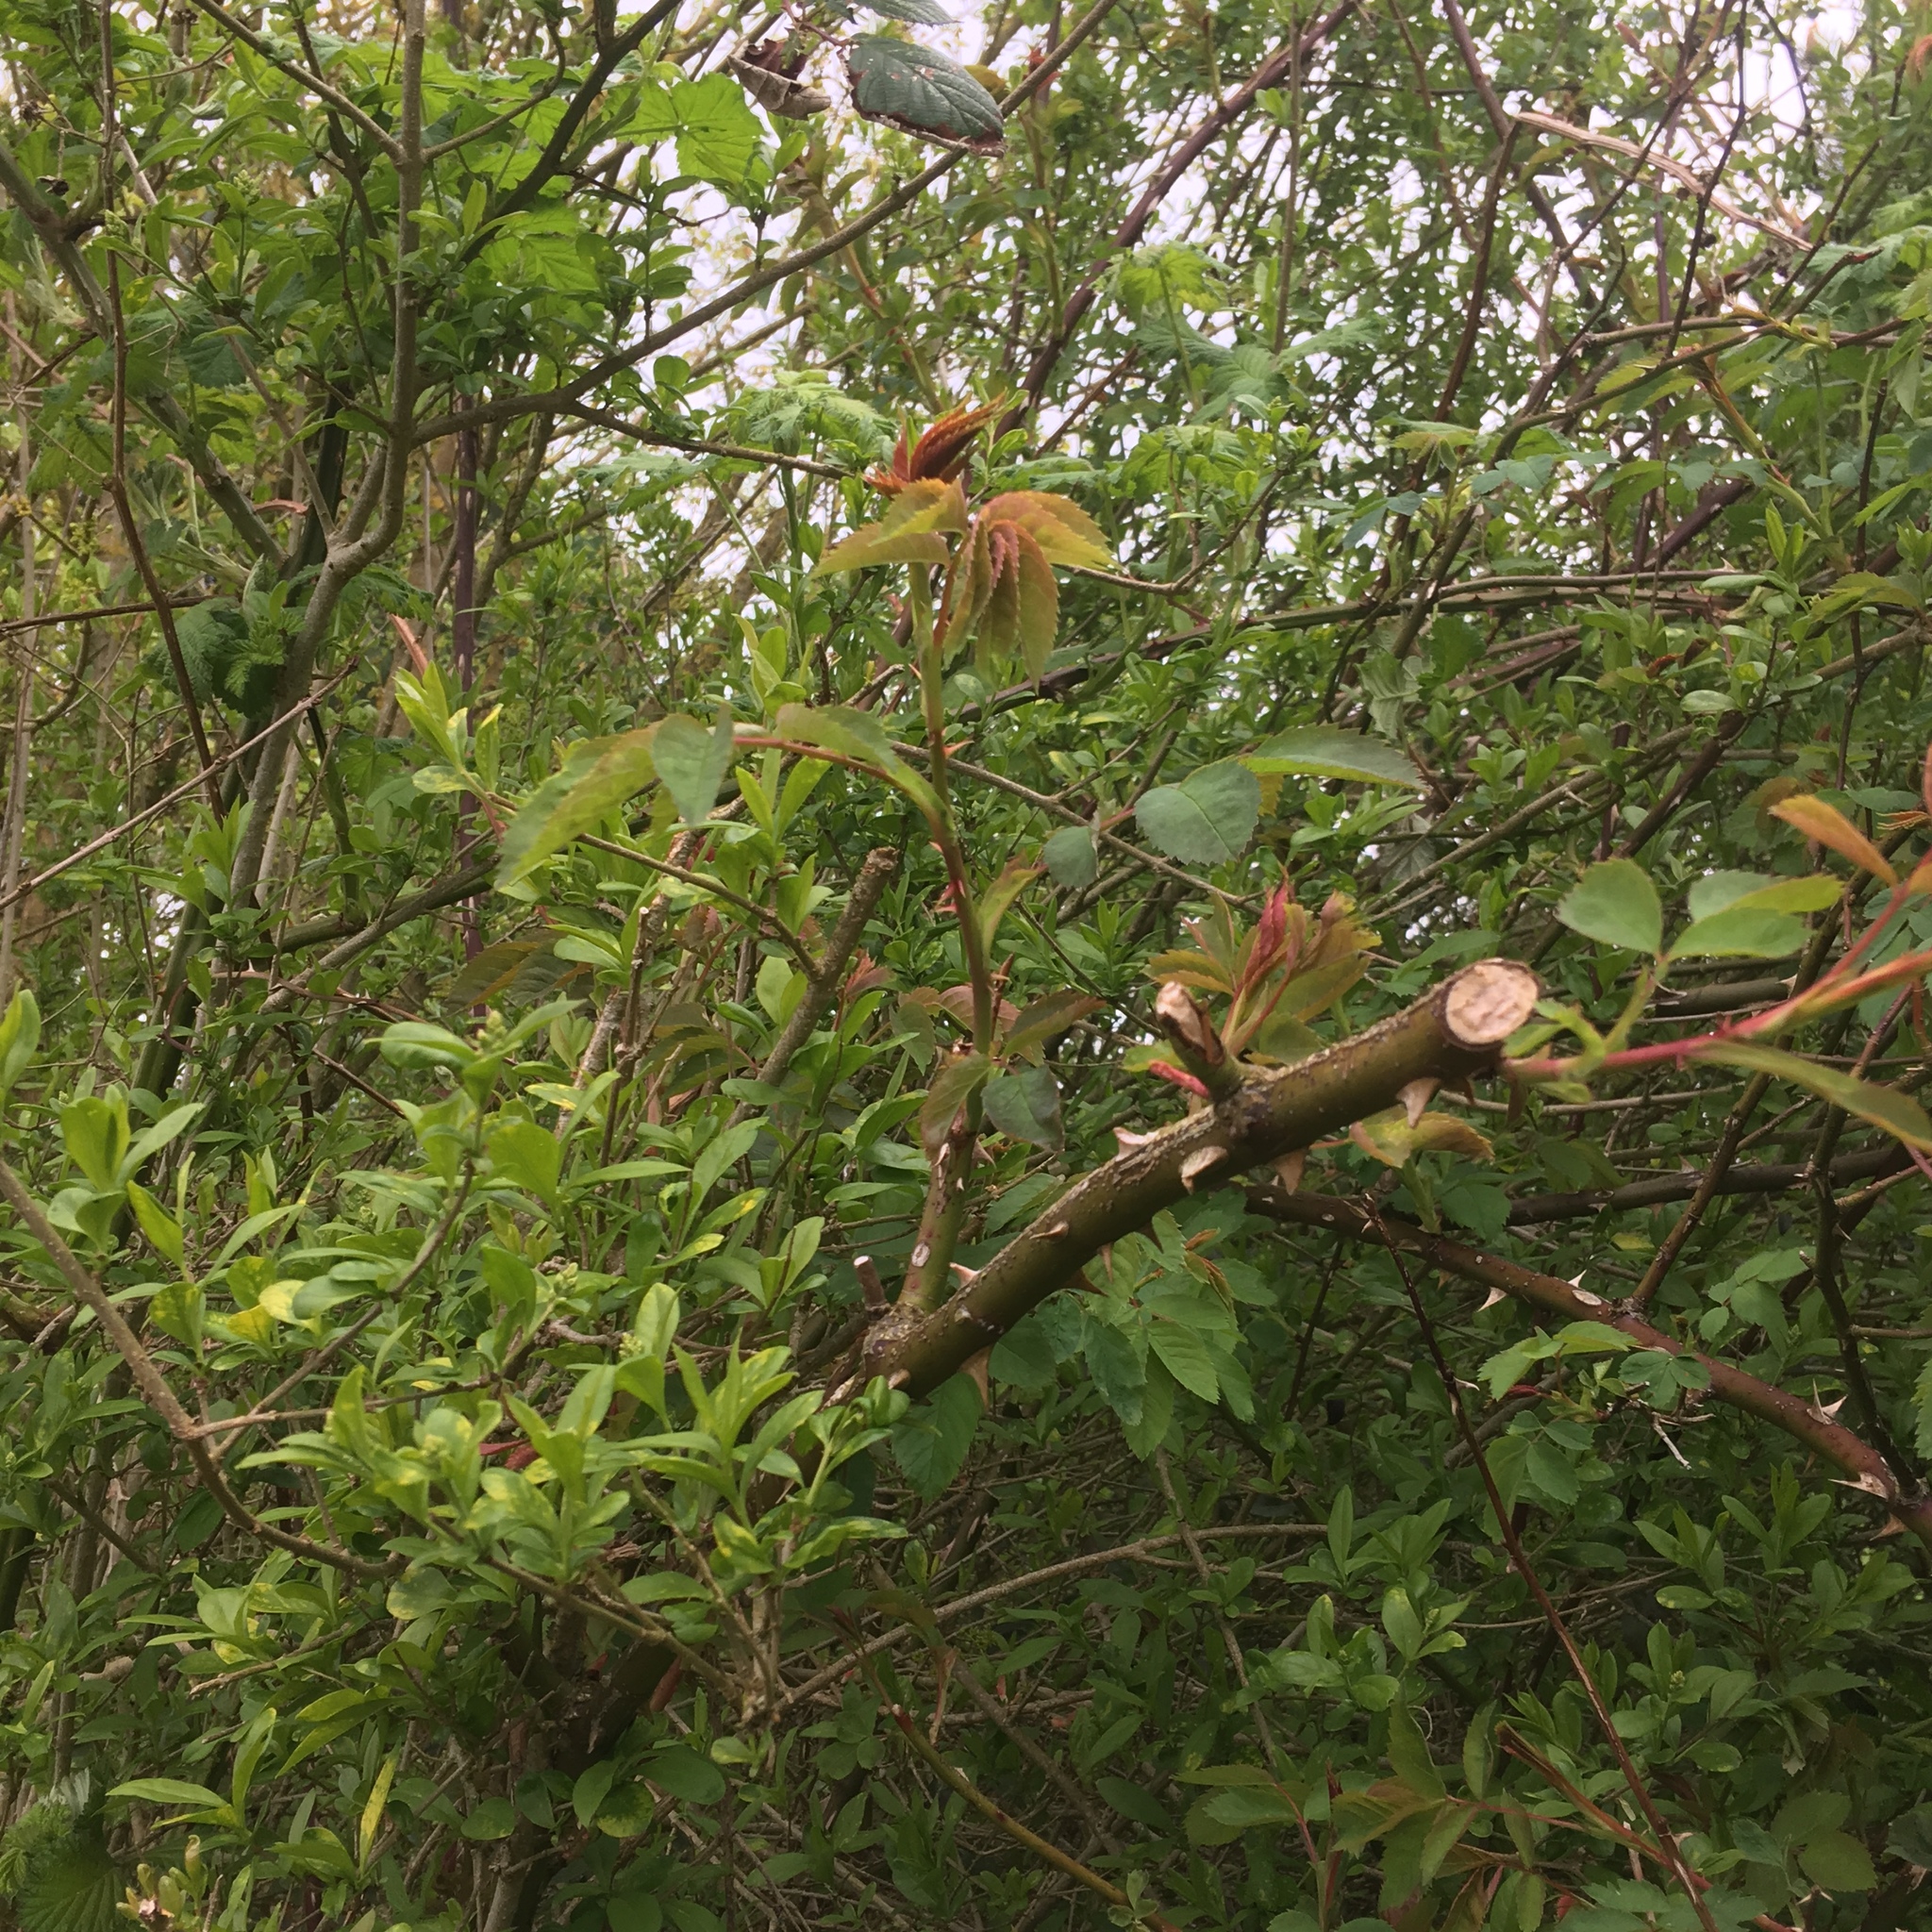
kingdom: Plantae
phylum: Tracheophyta
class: Magnoliopsida
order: Rosales
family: Rosaceae
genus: Rosa
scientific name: Rosa canina
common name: Dog rose
